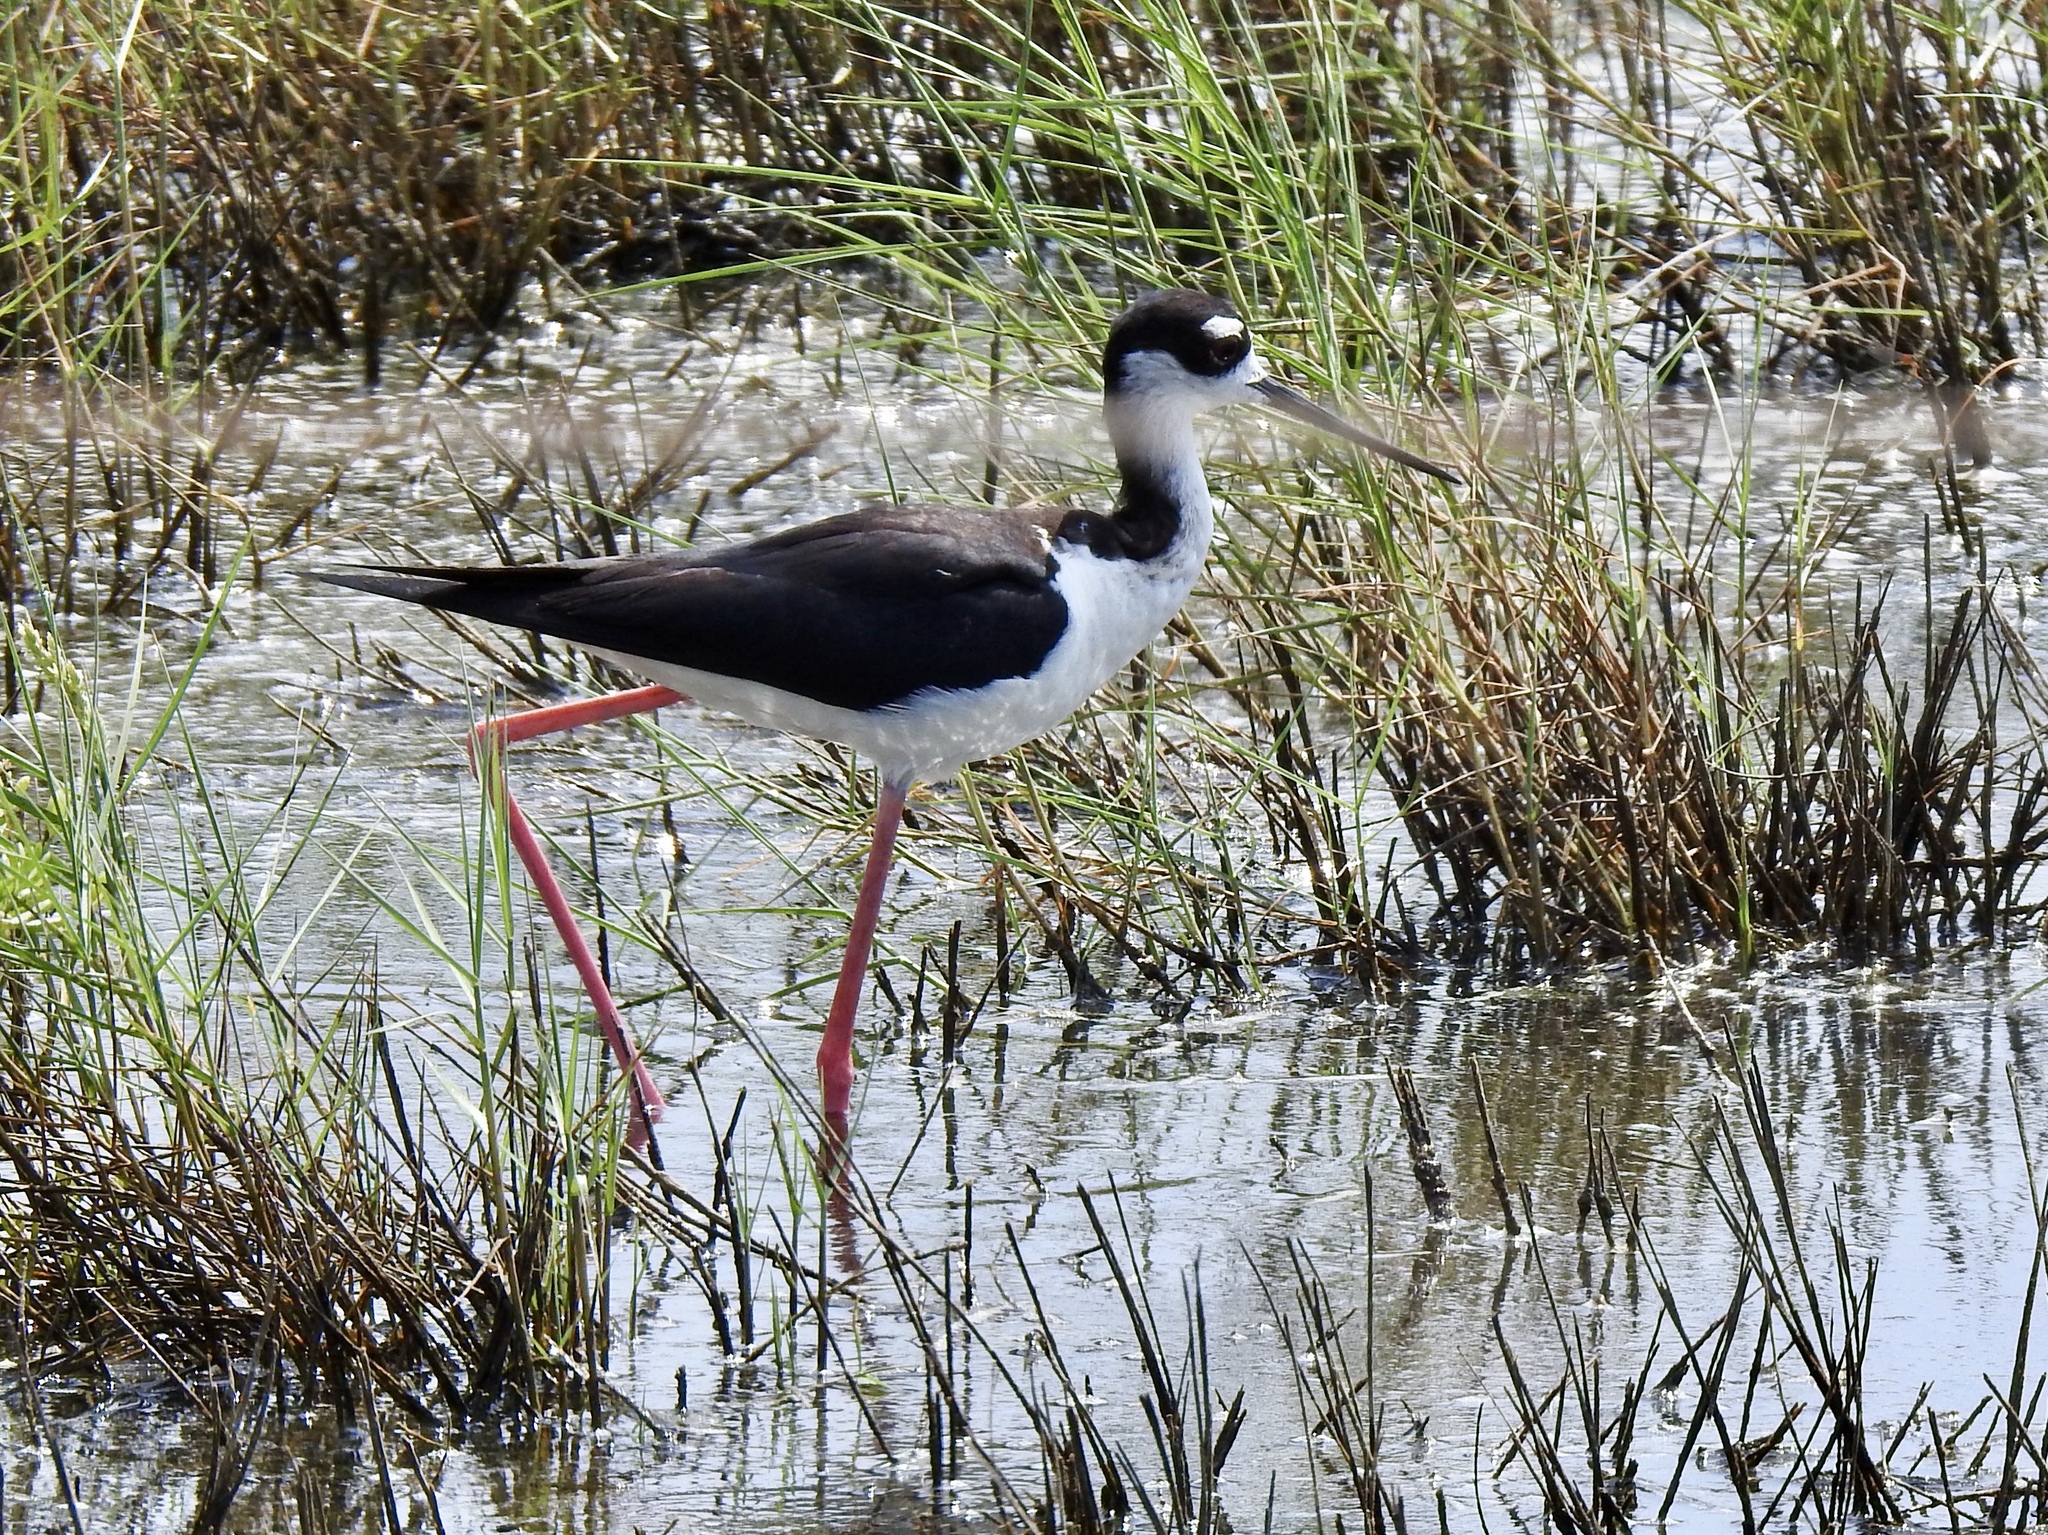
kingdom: Animalia
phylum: Chordata
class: Aves
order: Charadriiformes
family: Recurvirostridae
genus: Himantopus
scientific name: Himantopus mexicanus
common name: Black-necked stilt
